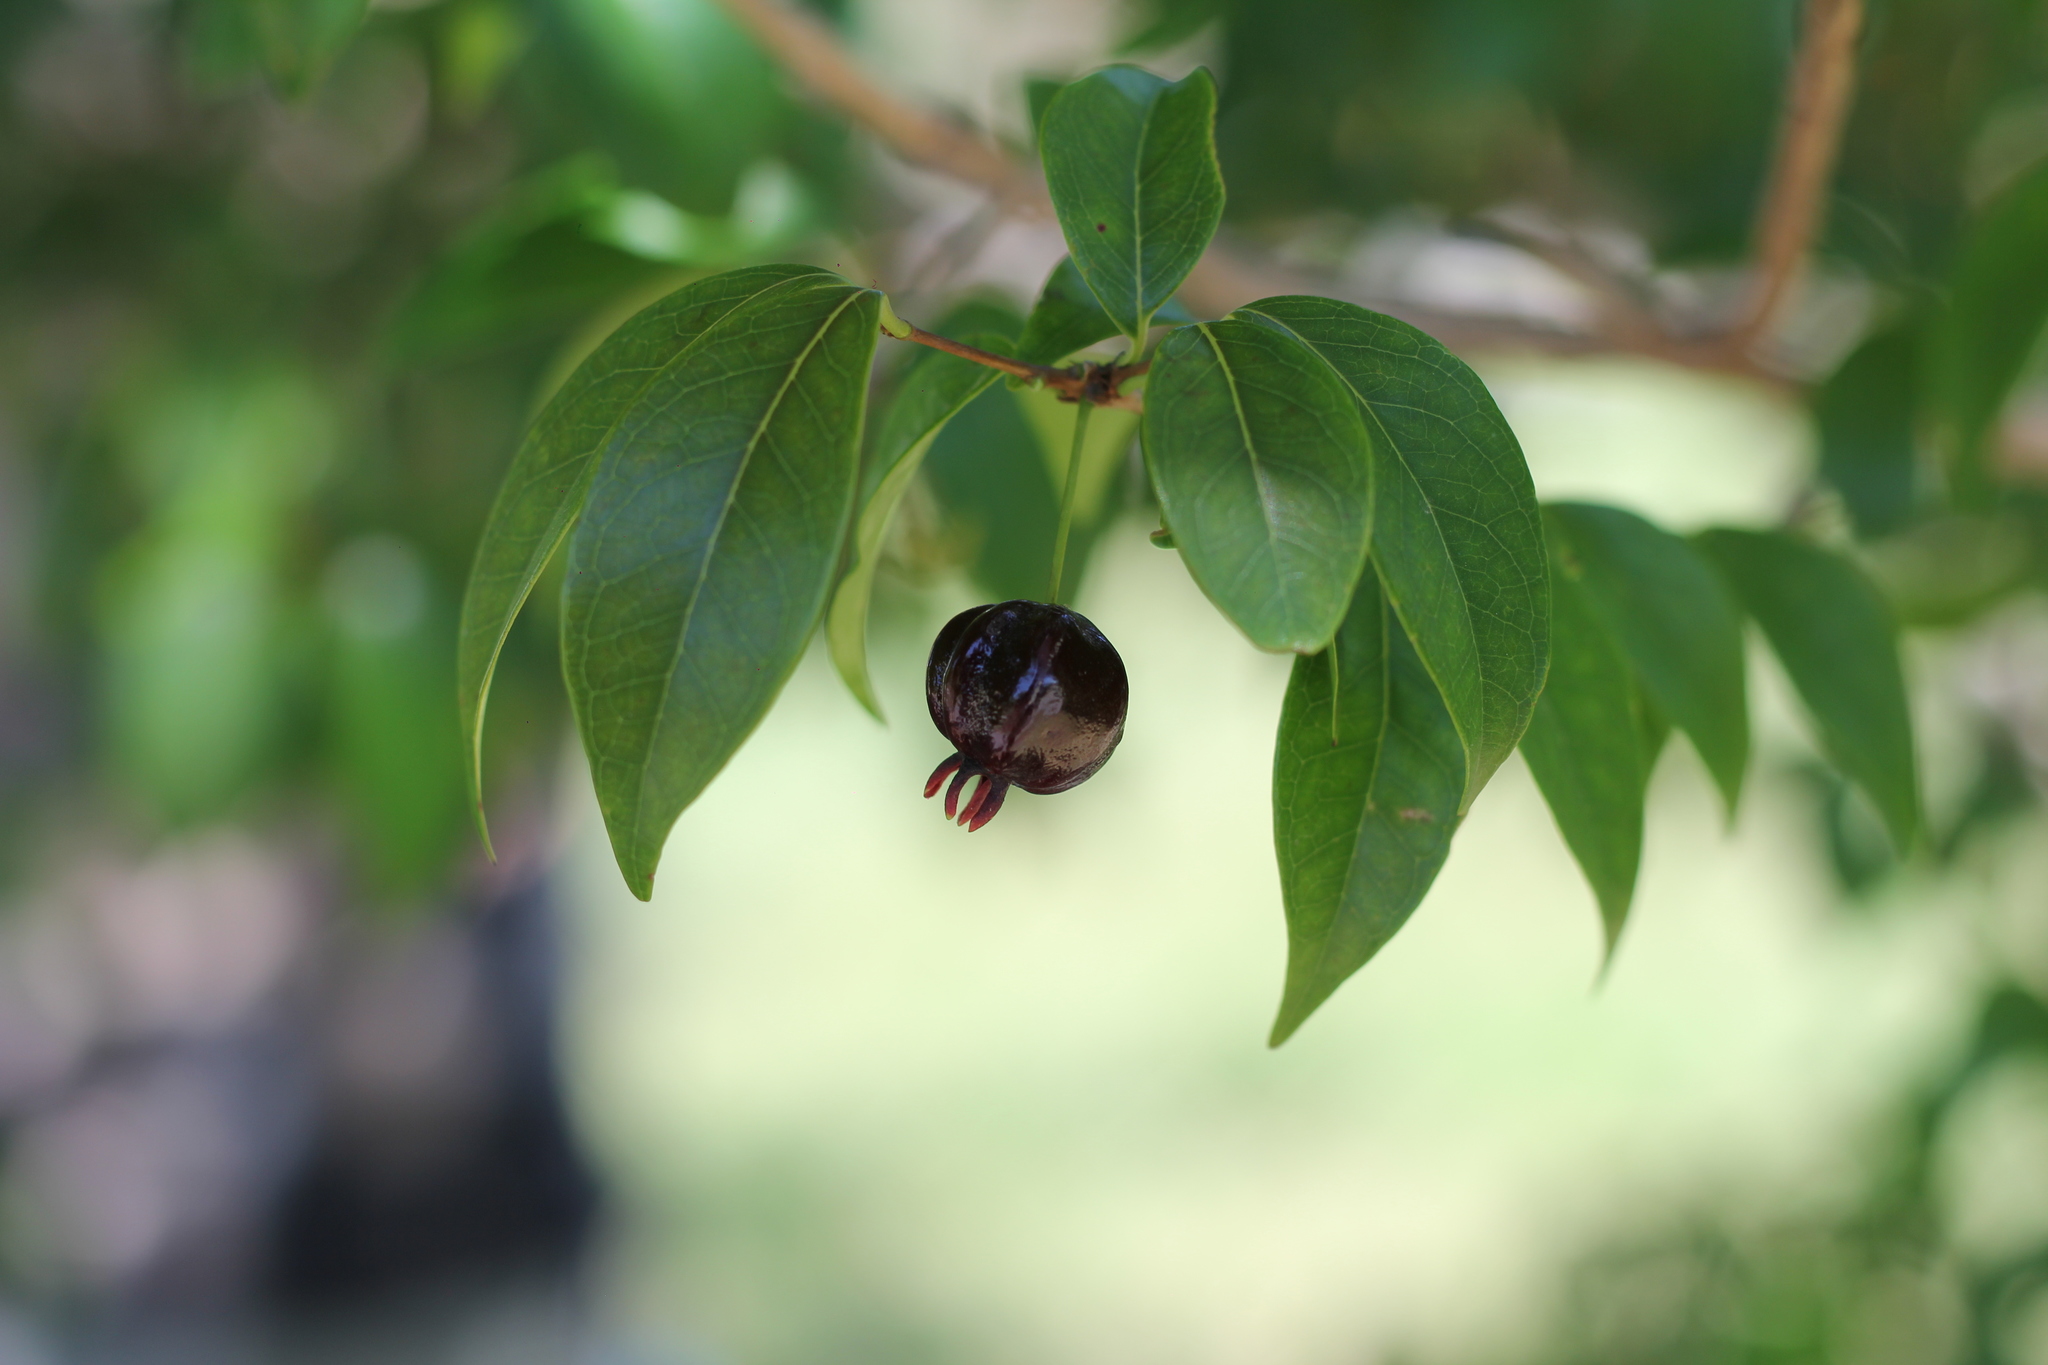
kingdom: Plantae
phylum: Tracheophyta
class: Magnoliopsida
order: Myrtales
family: Myrtaceae
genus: Eugenia
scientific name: Eugenia uniflora
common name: Surinam cherry
